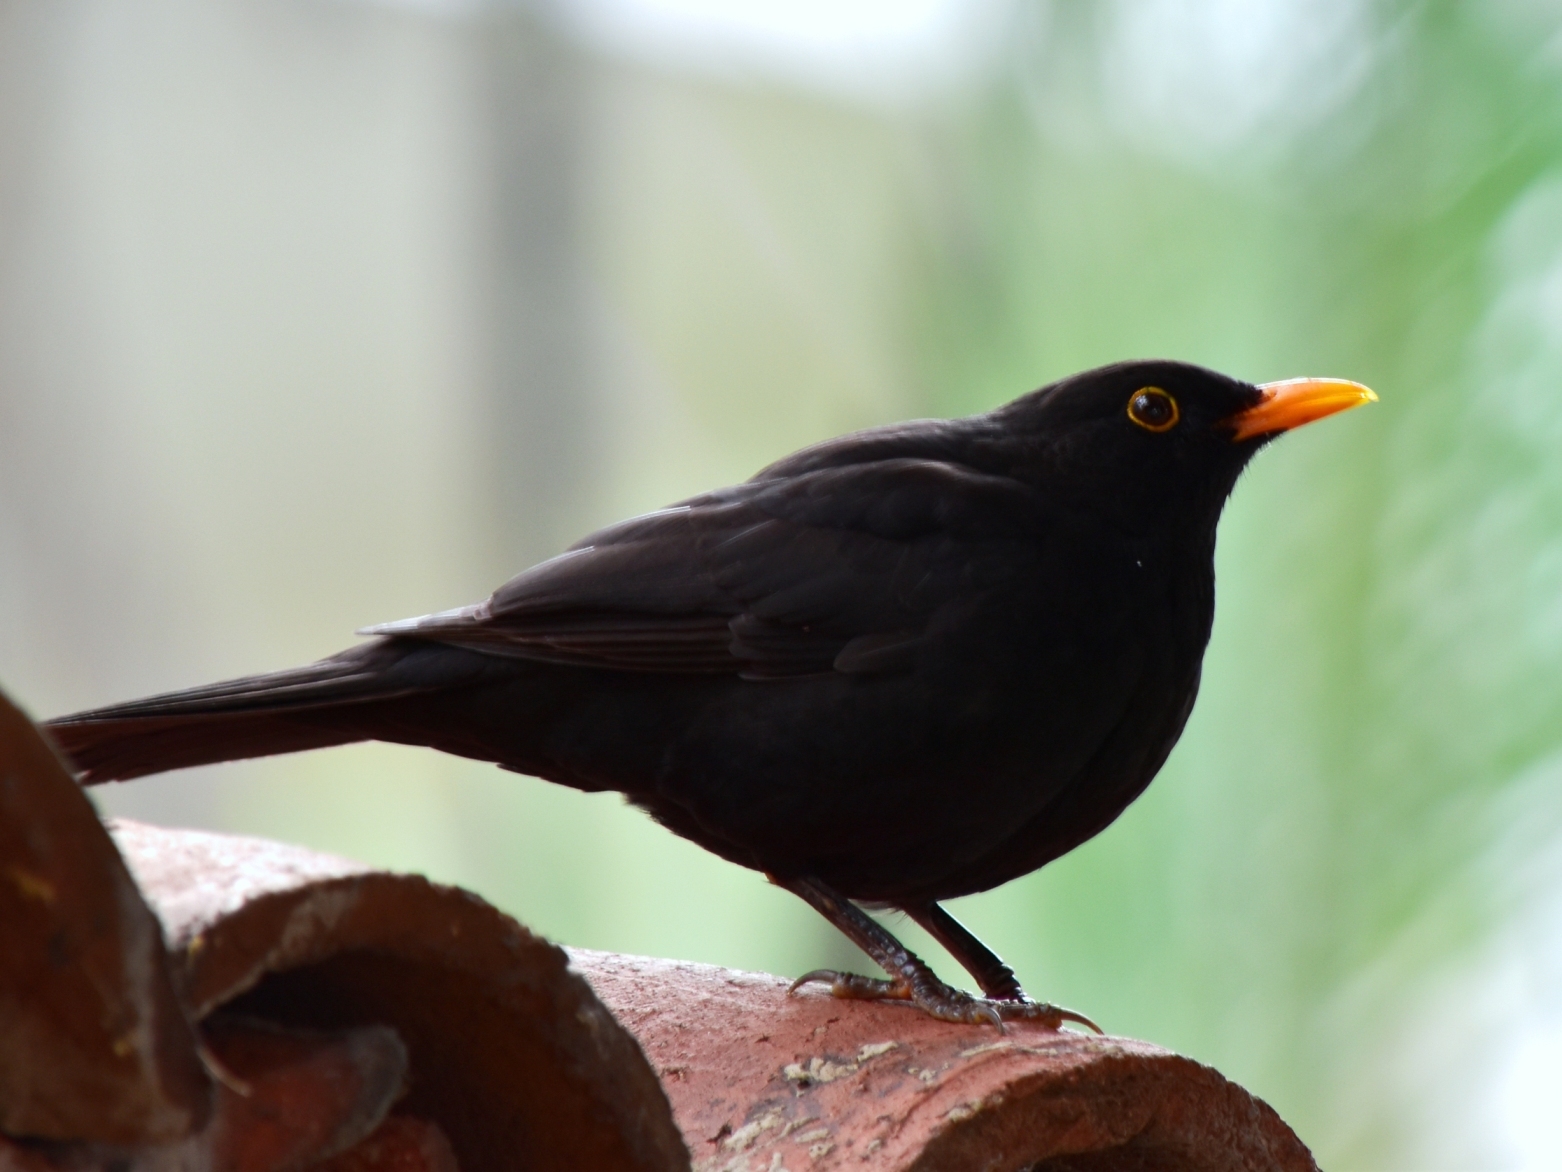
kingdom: Animalia
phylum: Chordata
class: Aves
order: Passeriformes
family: Turdidae
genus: Turdus
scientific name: Turdus merula
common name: Common blackbird
